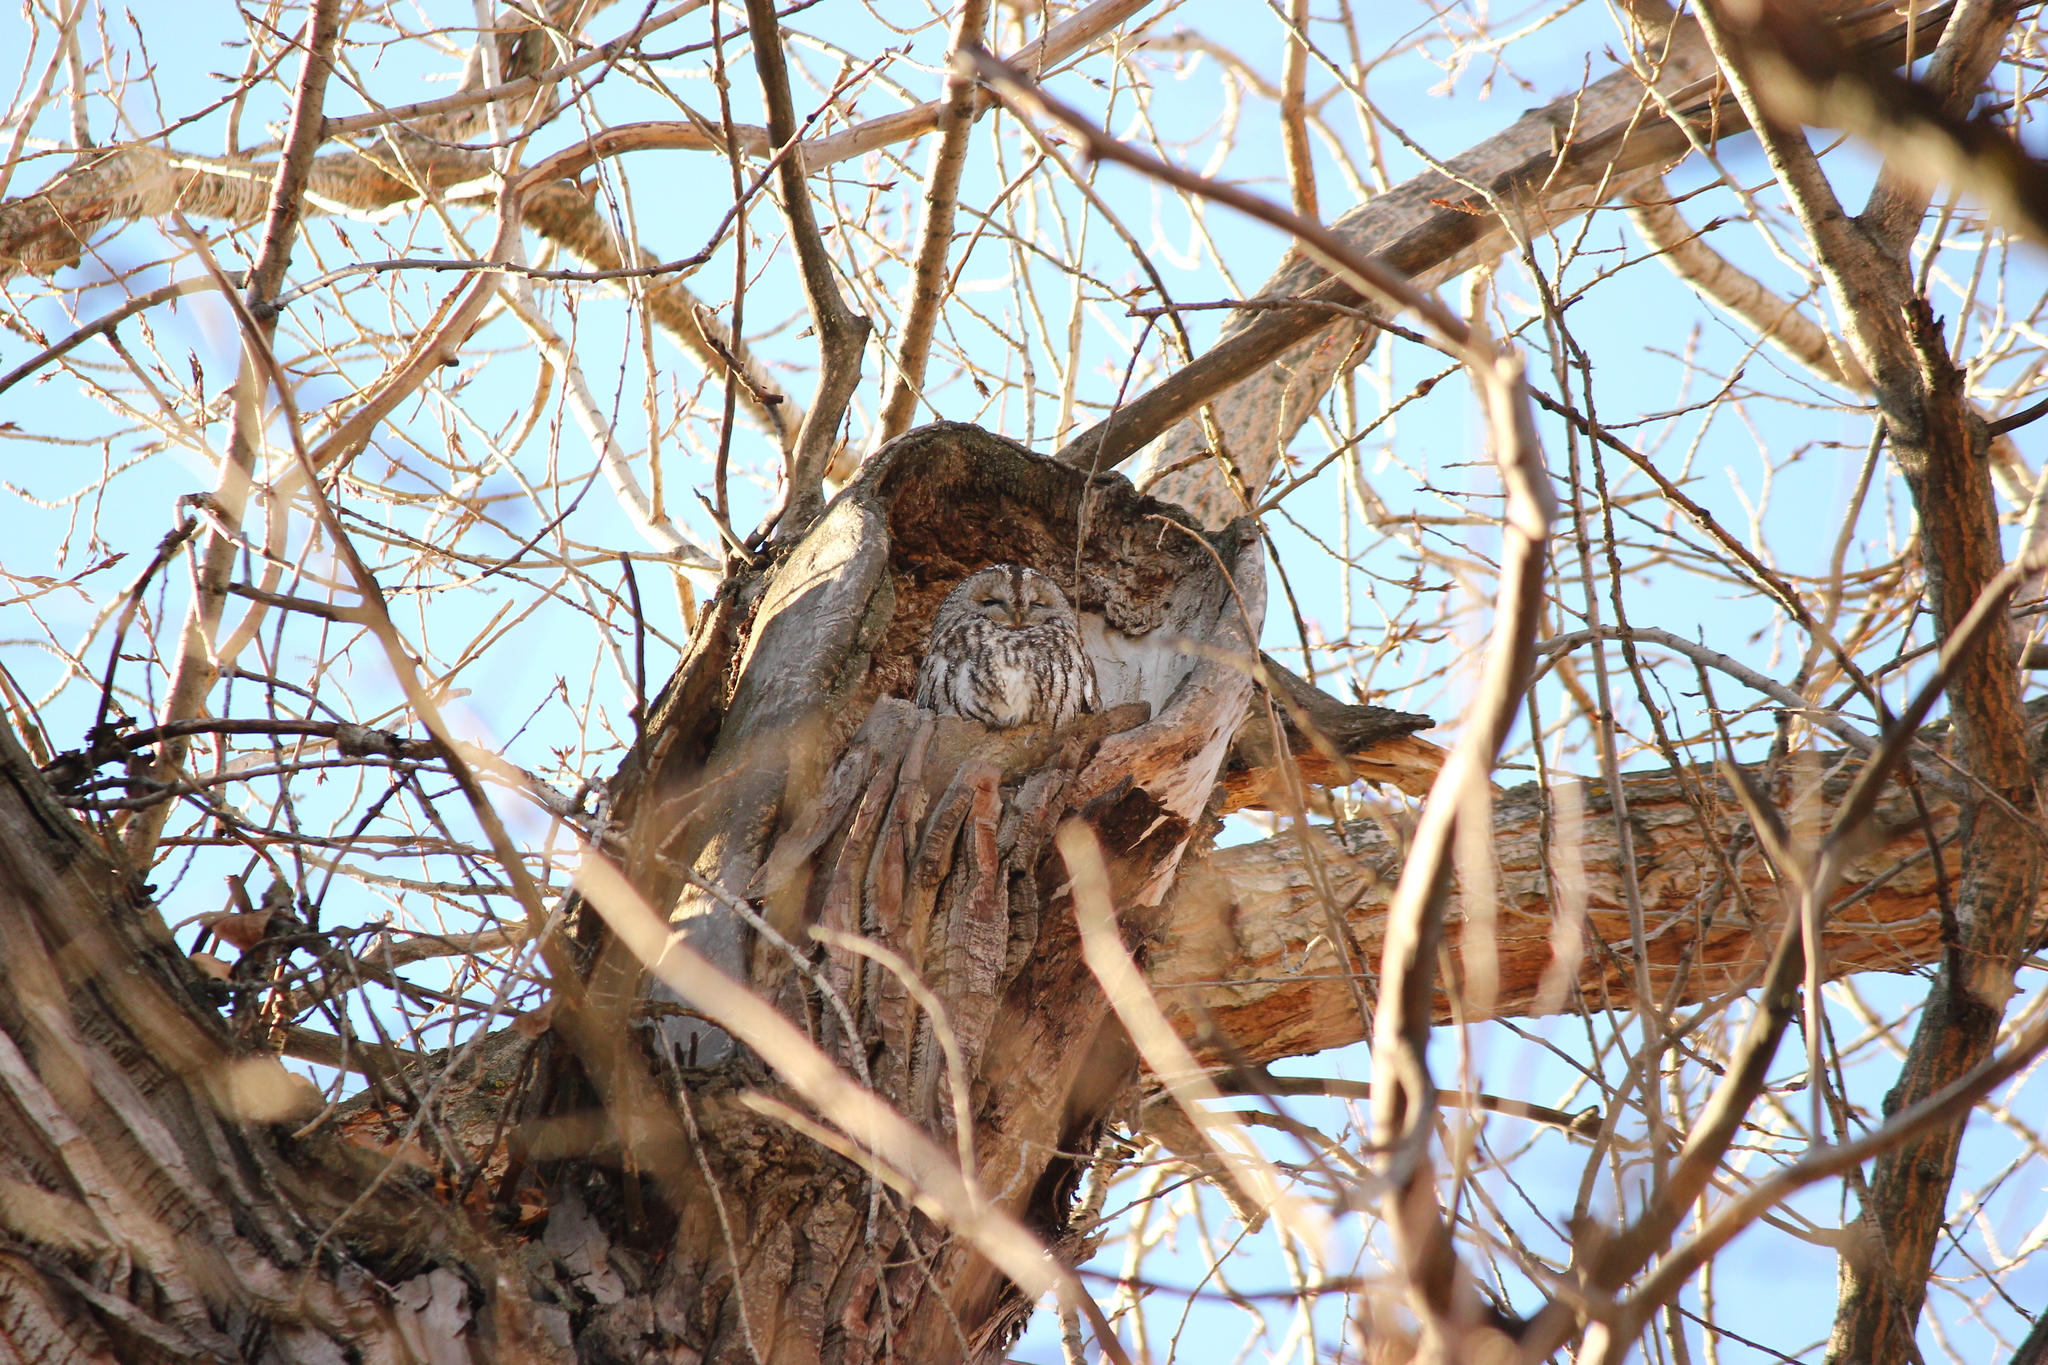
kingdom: Animalia
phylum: Chordata
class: Aves
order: Strigiformes
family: Strigidae
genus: Strix
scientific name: Strix aluco
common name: Tawny owl
